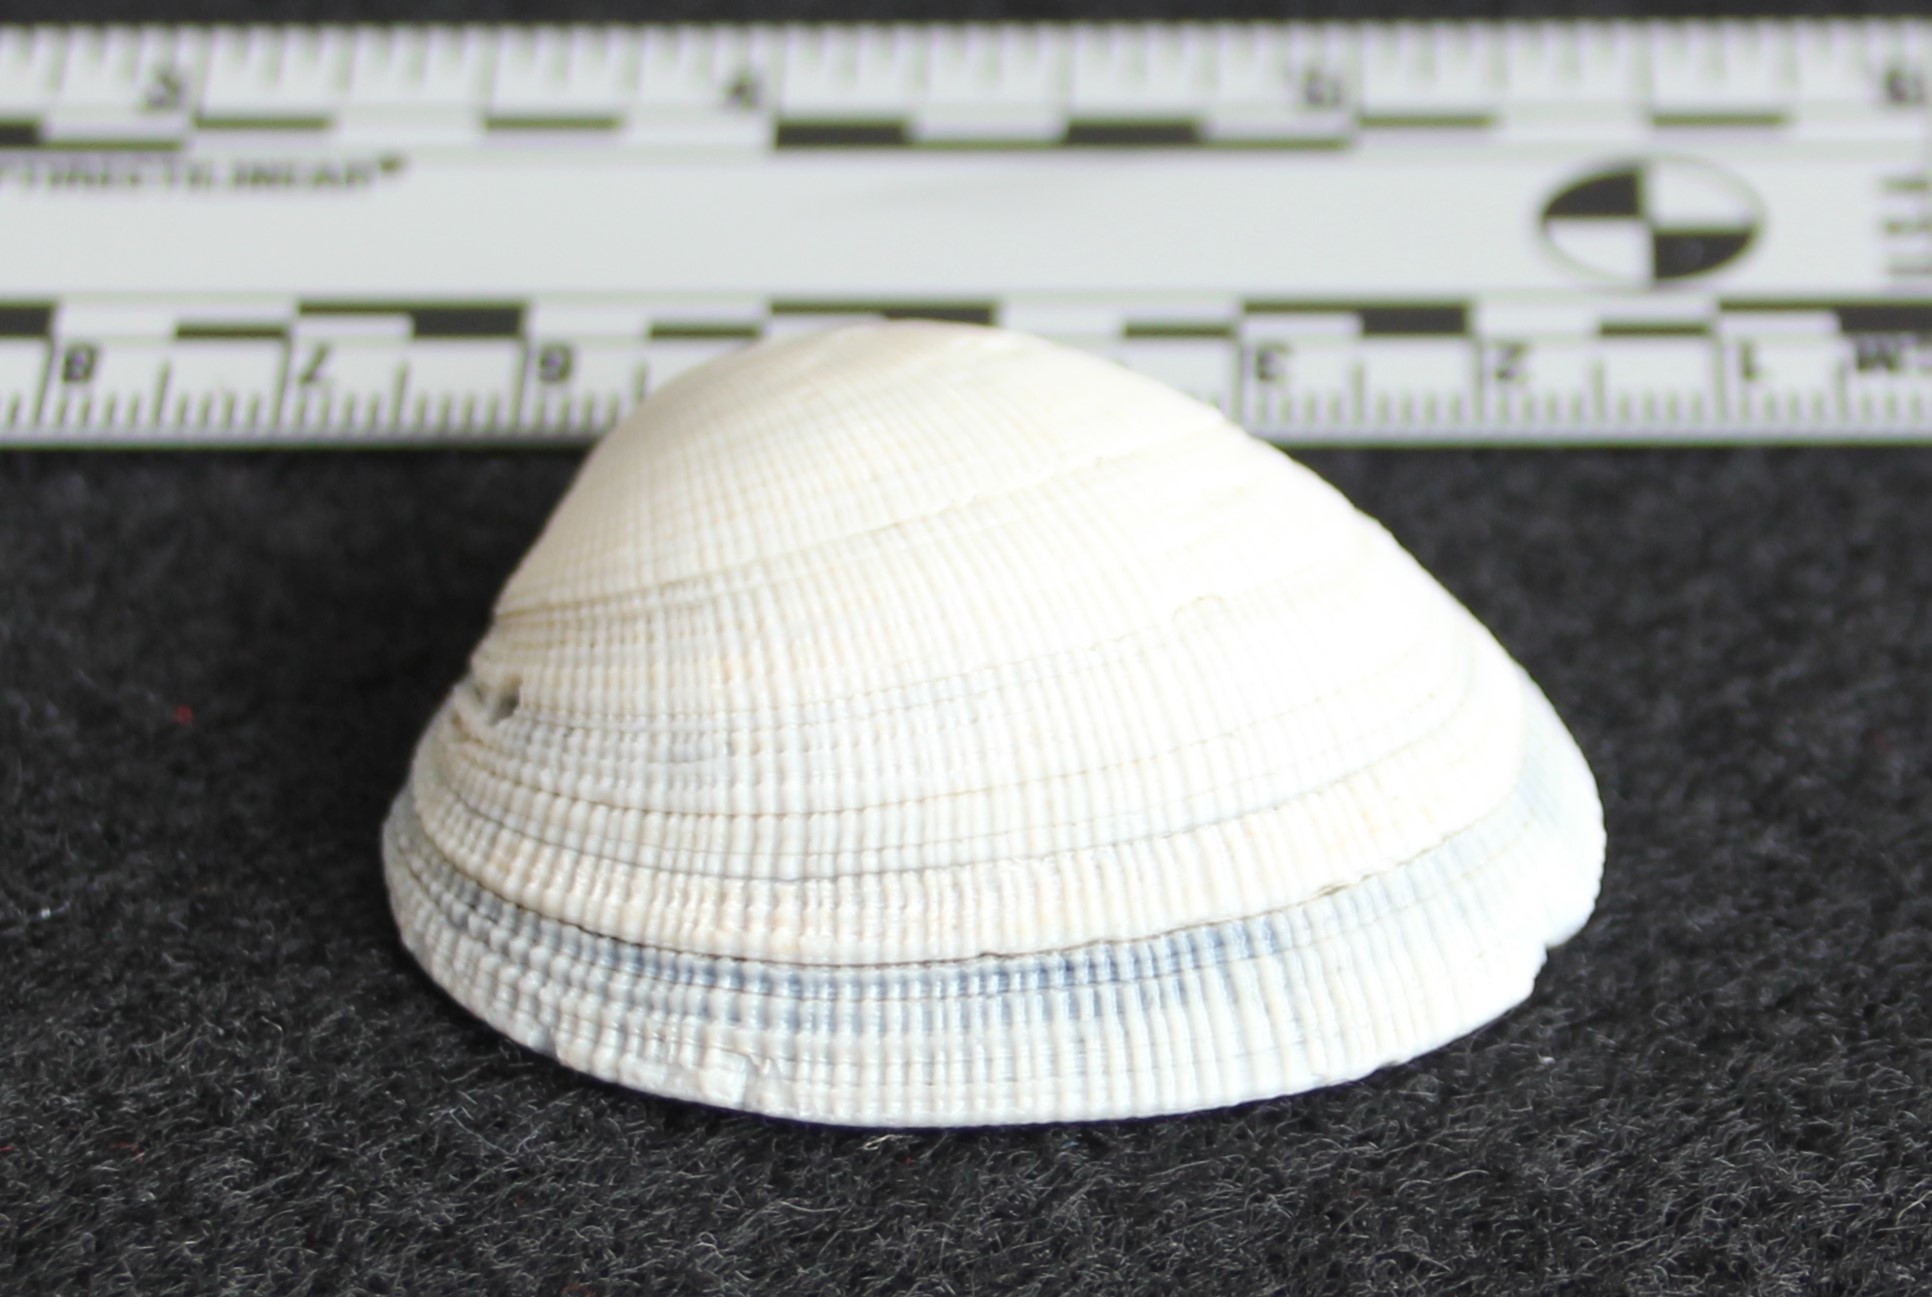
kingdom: Animalia
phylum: Mollusca
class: Bivalvia
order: Venerida
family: Veneridae
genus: Leukoma
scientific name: Leukoma staminea
